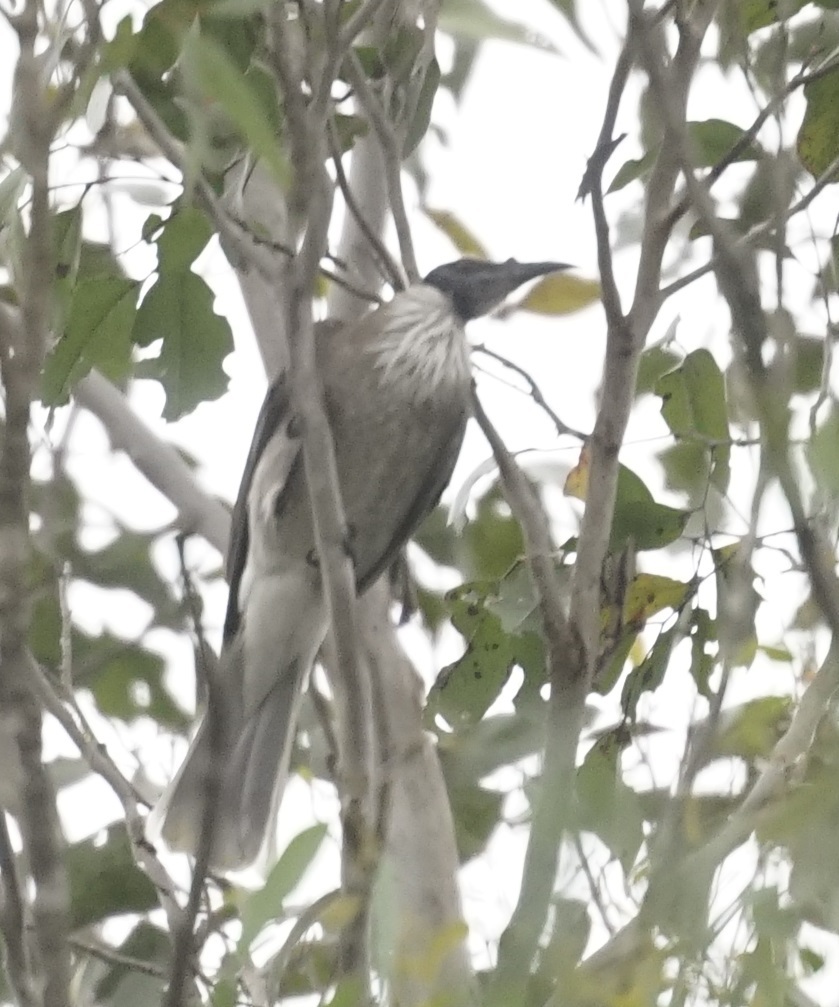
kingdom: Animalia
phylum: Chordata
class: Aves
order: Passeriformes
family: Meliphagidae
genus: Philemon
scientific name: Philemon corniculatus
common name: Noisy friarbird
